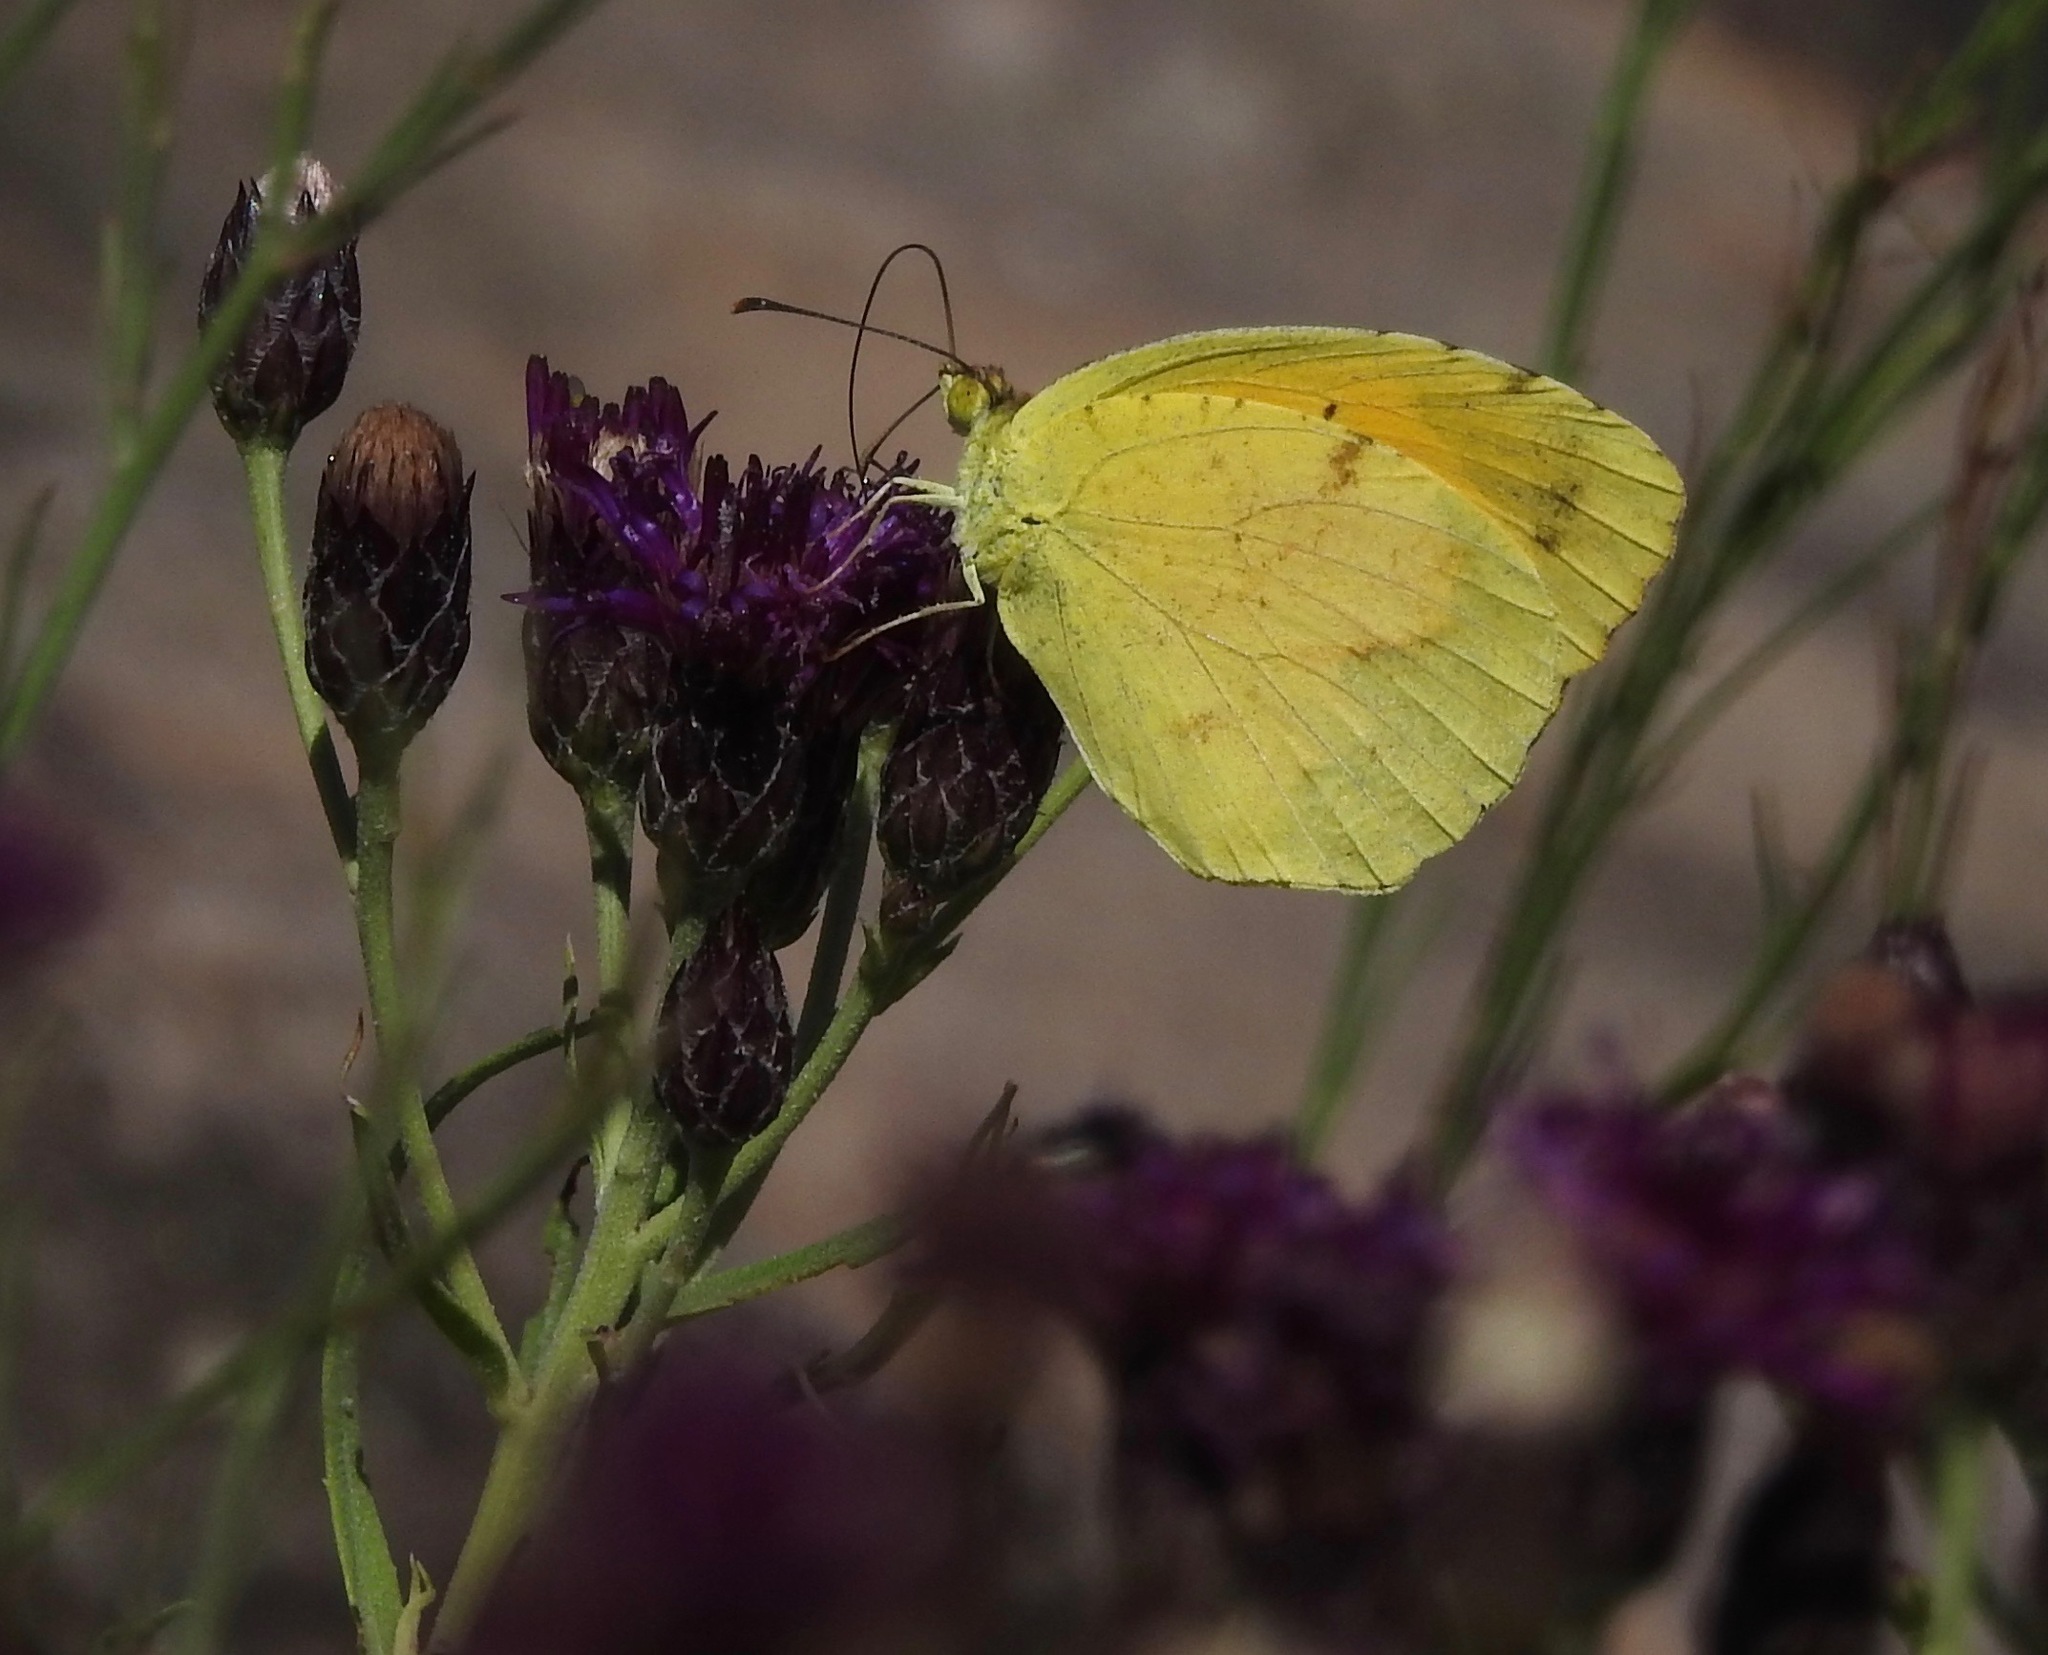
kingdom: Animalia
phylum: Arthropoda
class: Insecta
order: Lepidoptera
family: Pieridae
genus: Abaeis
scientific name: Abaeis nicippe
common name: Sleepy orange
